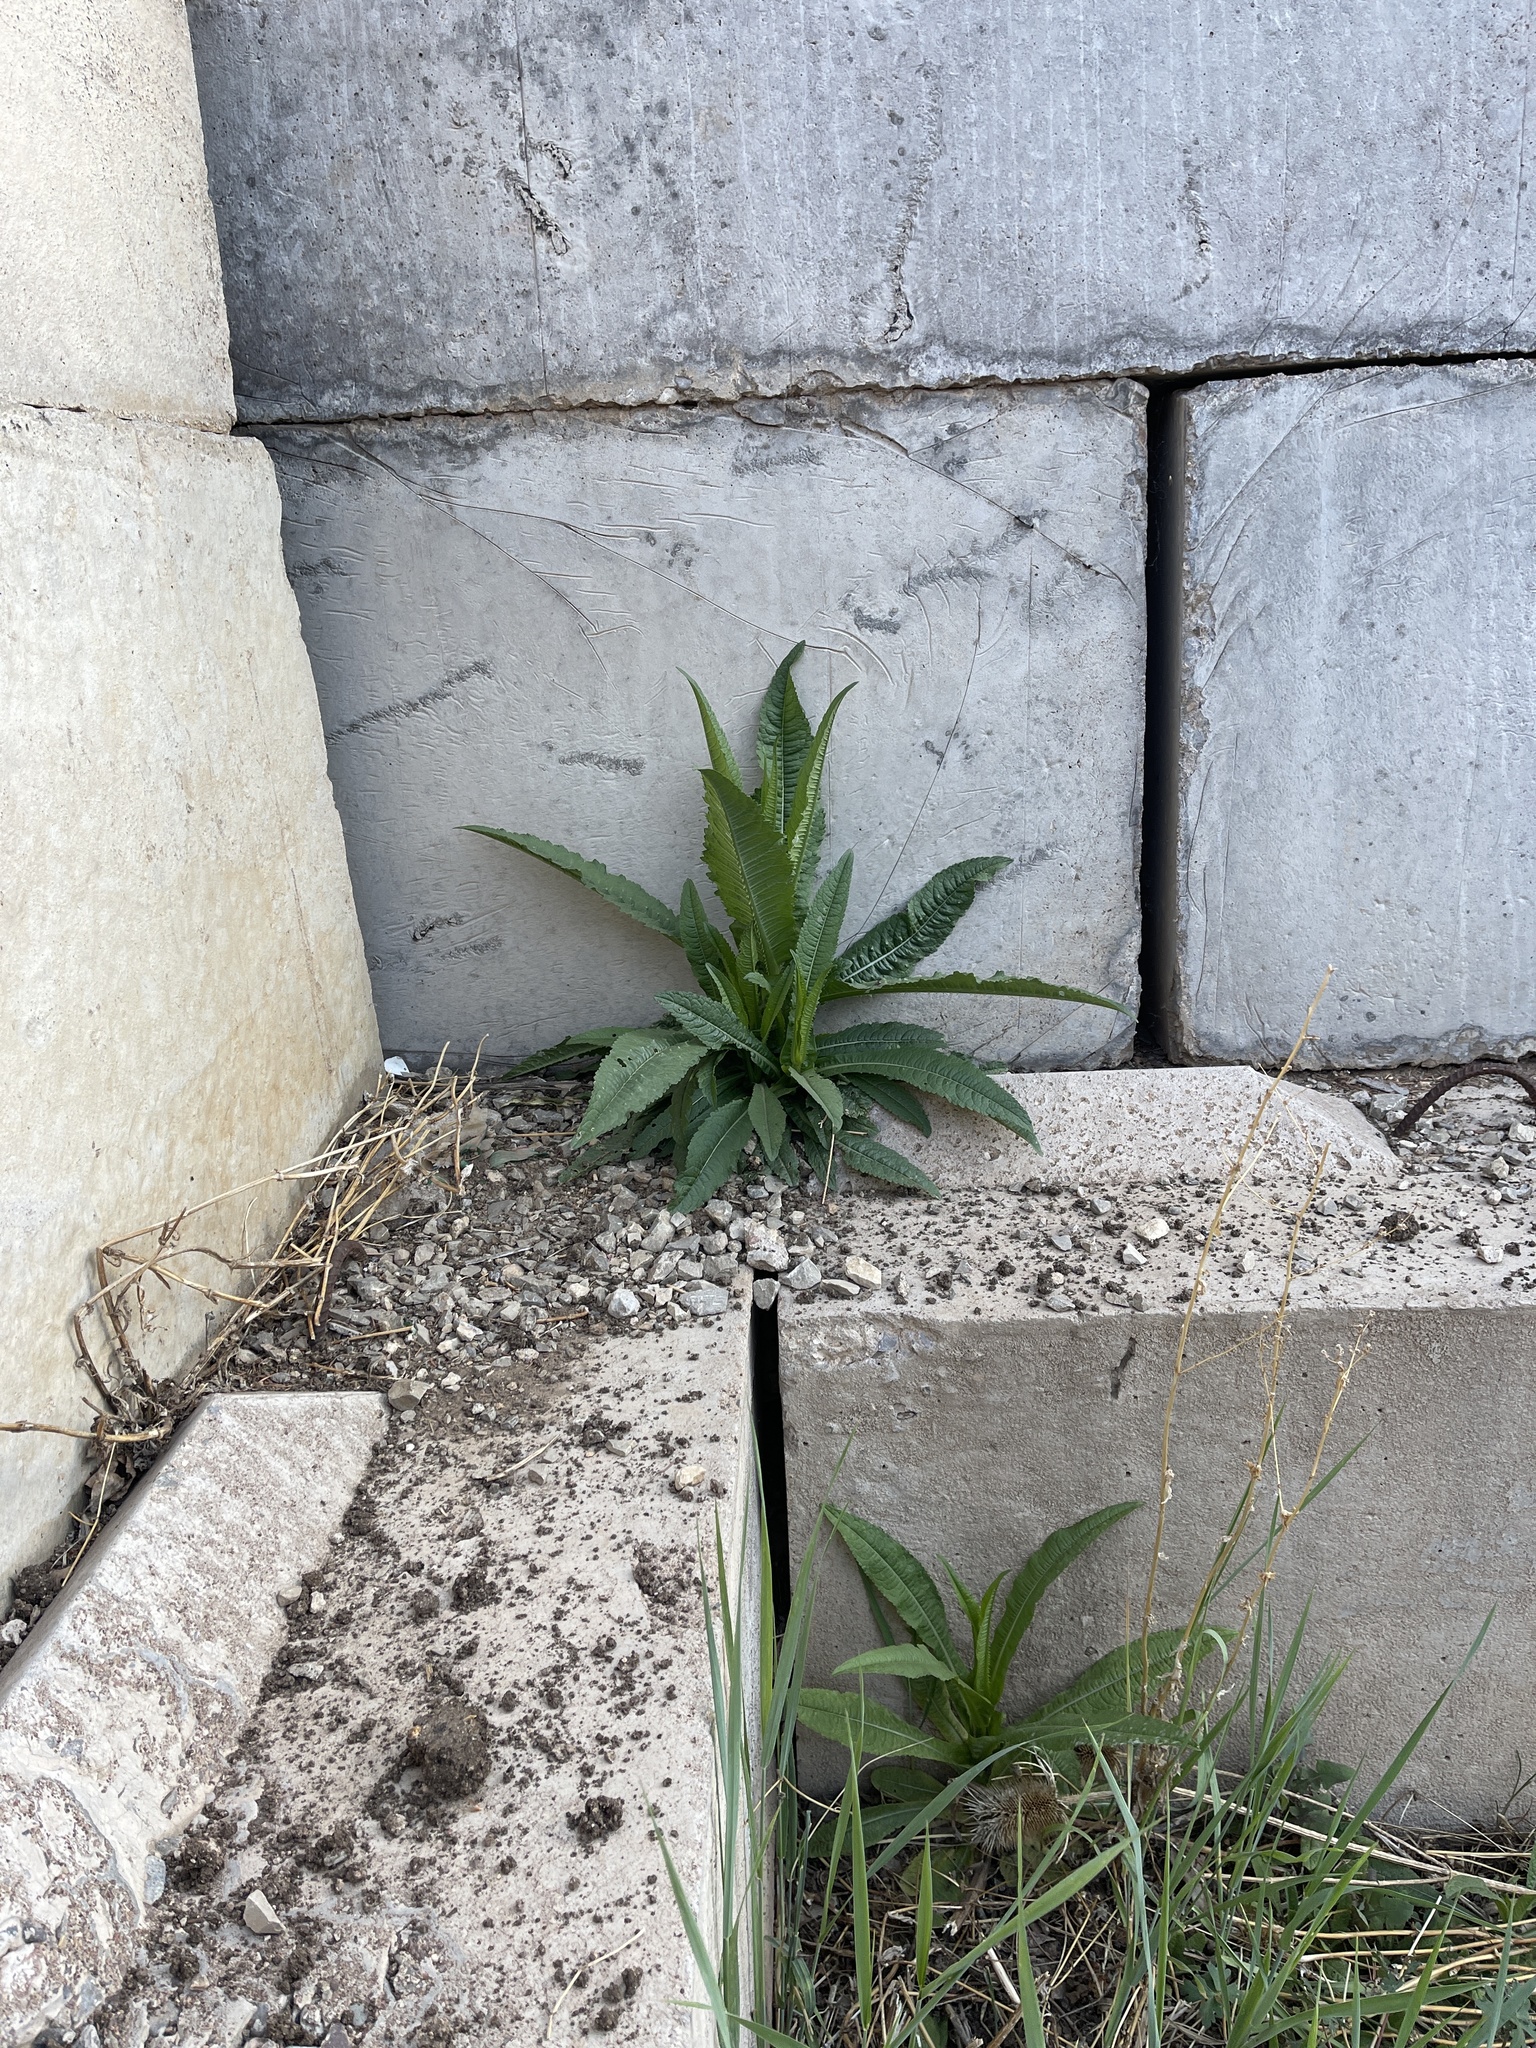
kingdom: Plantae
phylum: Tracheophyta
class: Magnoliopsida
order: Dipsacales
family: Caprifoliaceae
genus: Dipsacus
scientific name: Dipsacus fullonum
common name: Teasel
